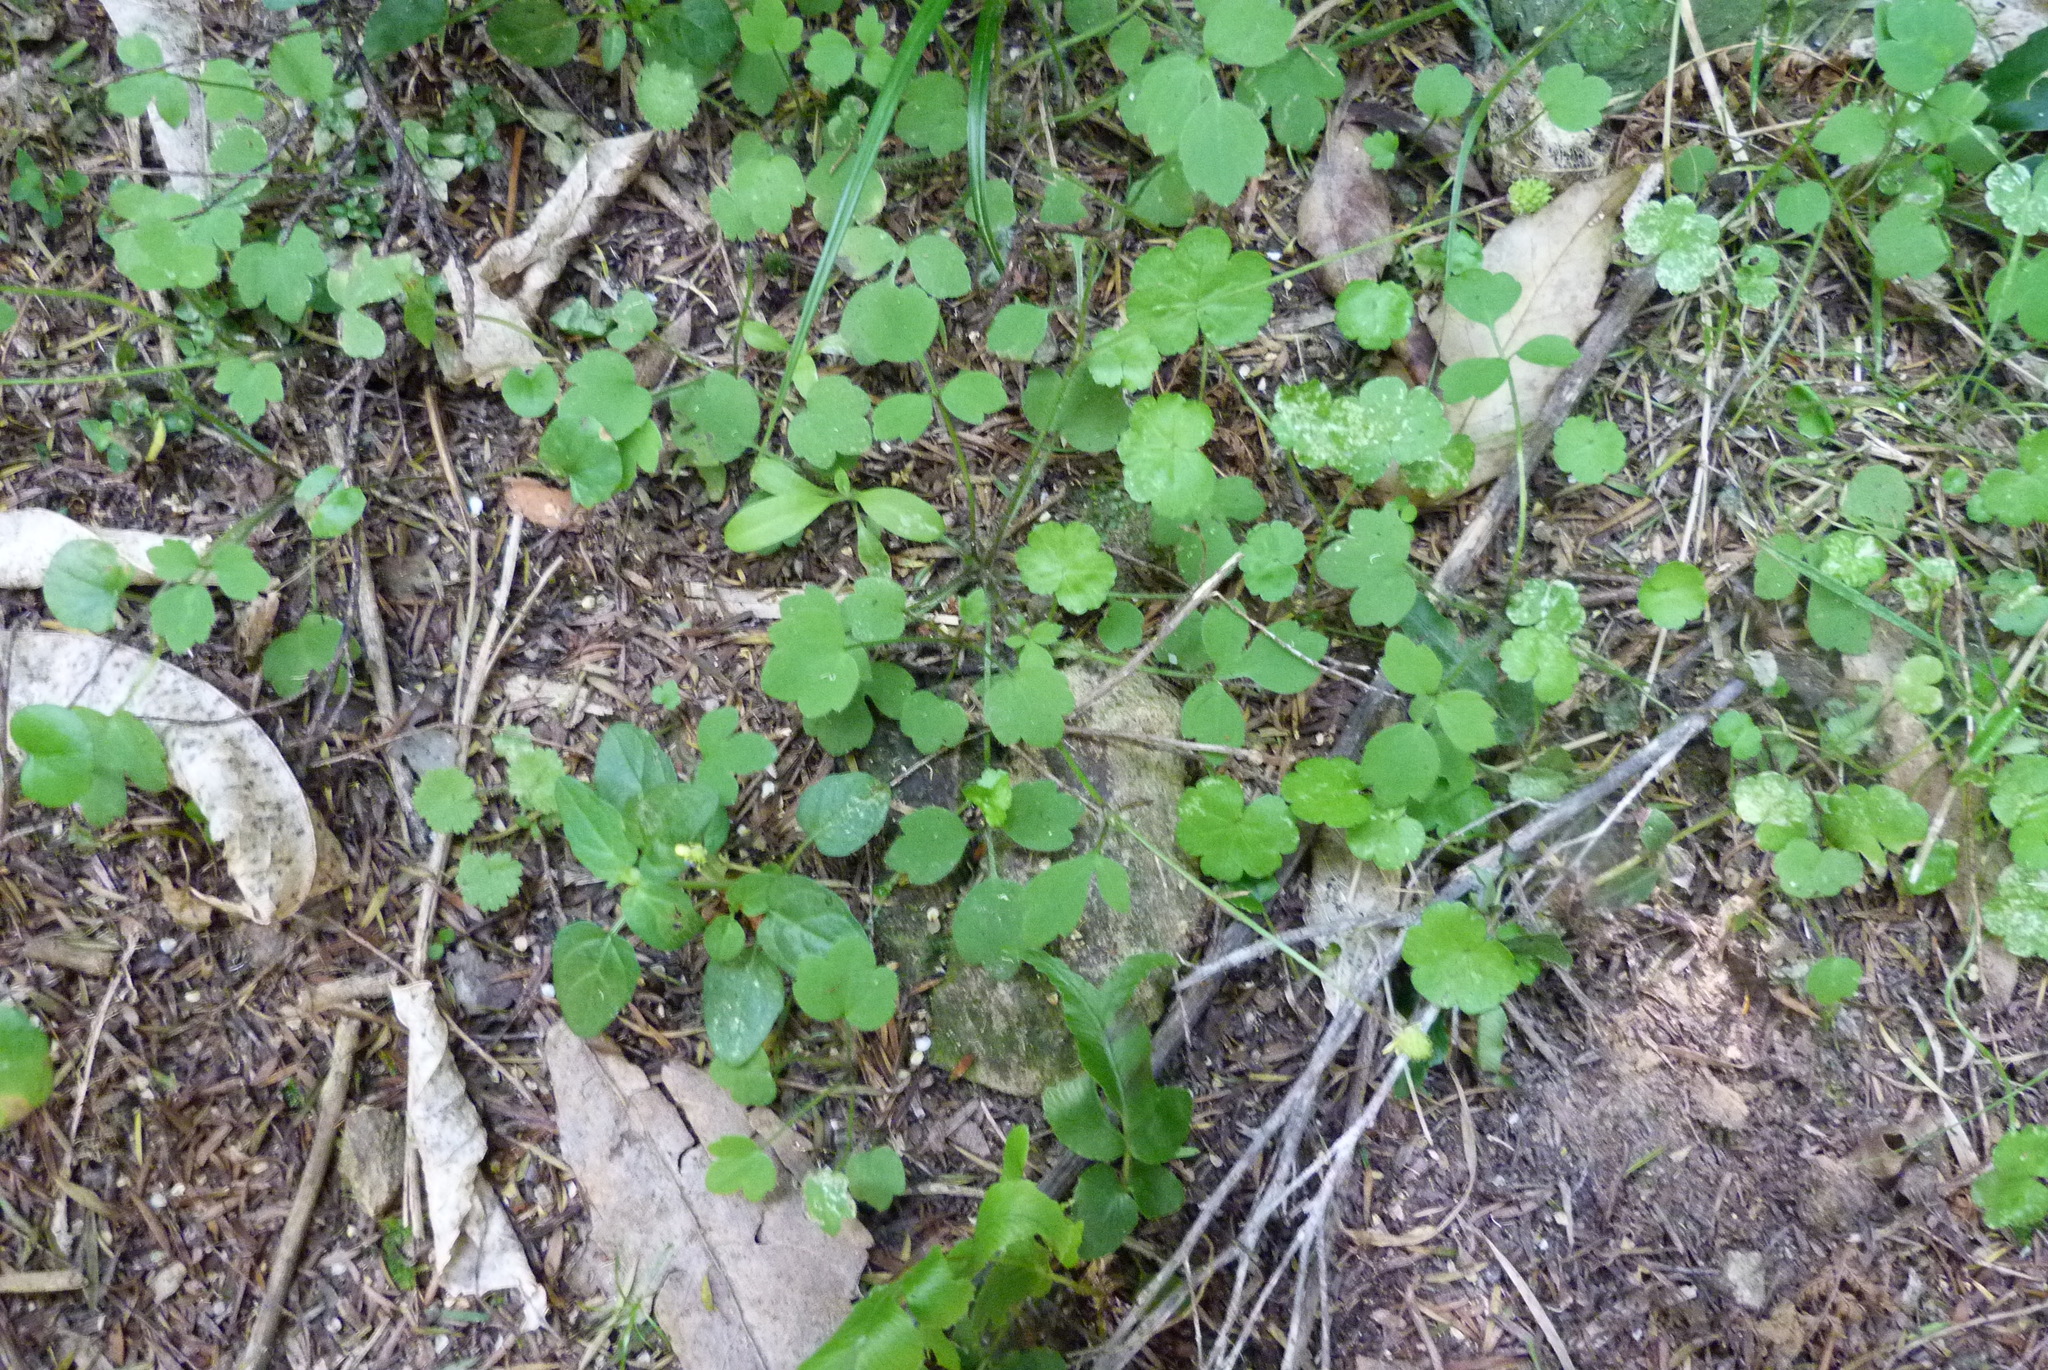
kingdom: Plantae
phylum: Tracheophyta
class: Magnoliopsida
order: Ranunculales
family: Ranunculaceae
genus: Ranunculus
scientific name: Ranunculus reflexus
